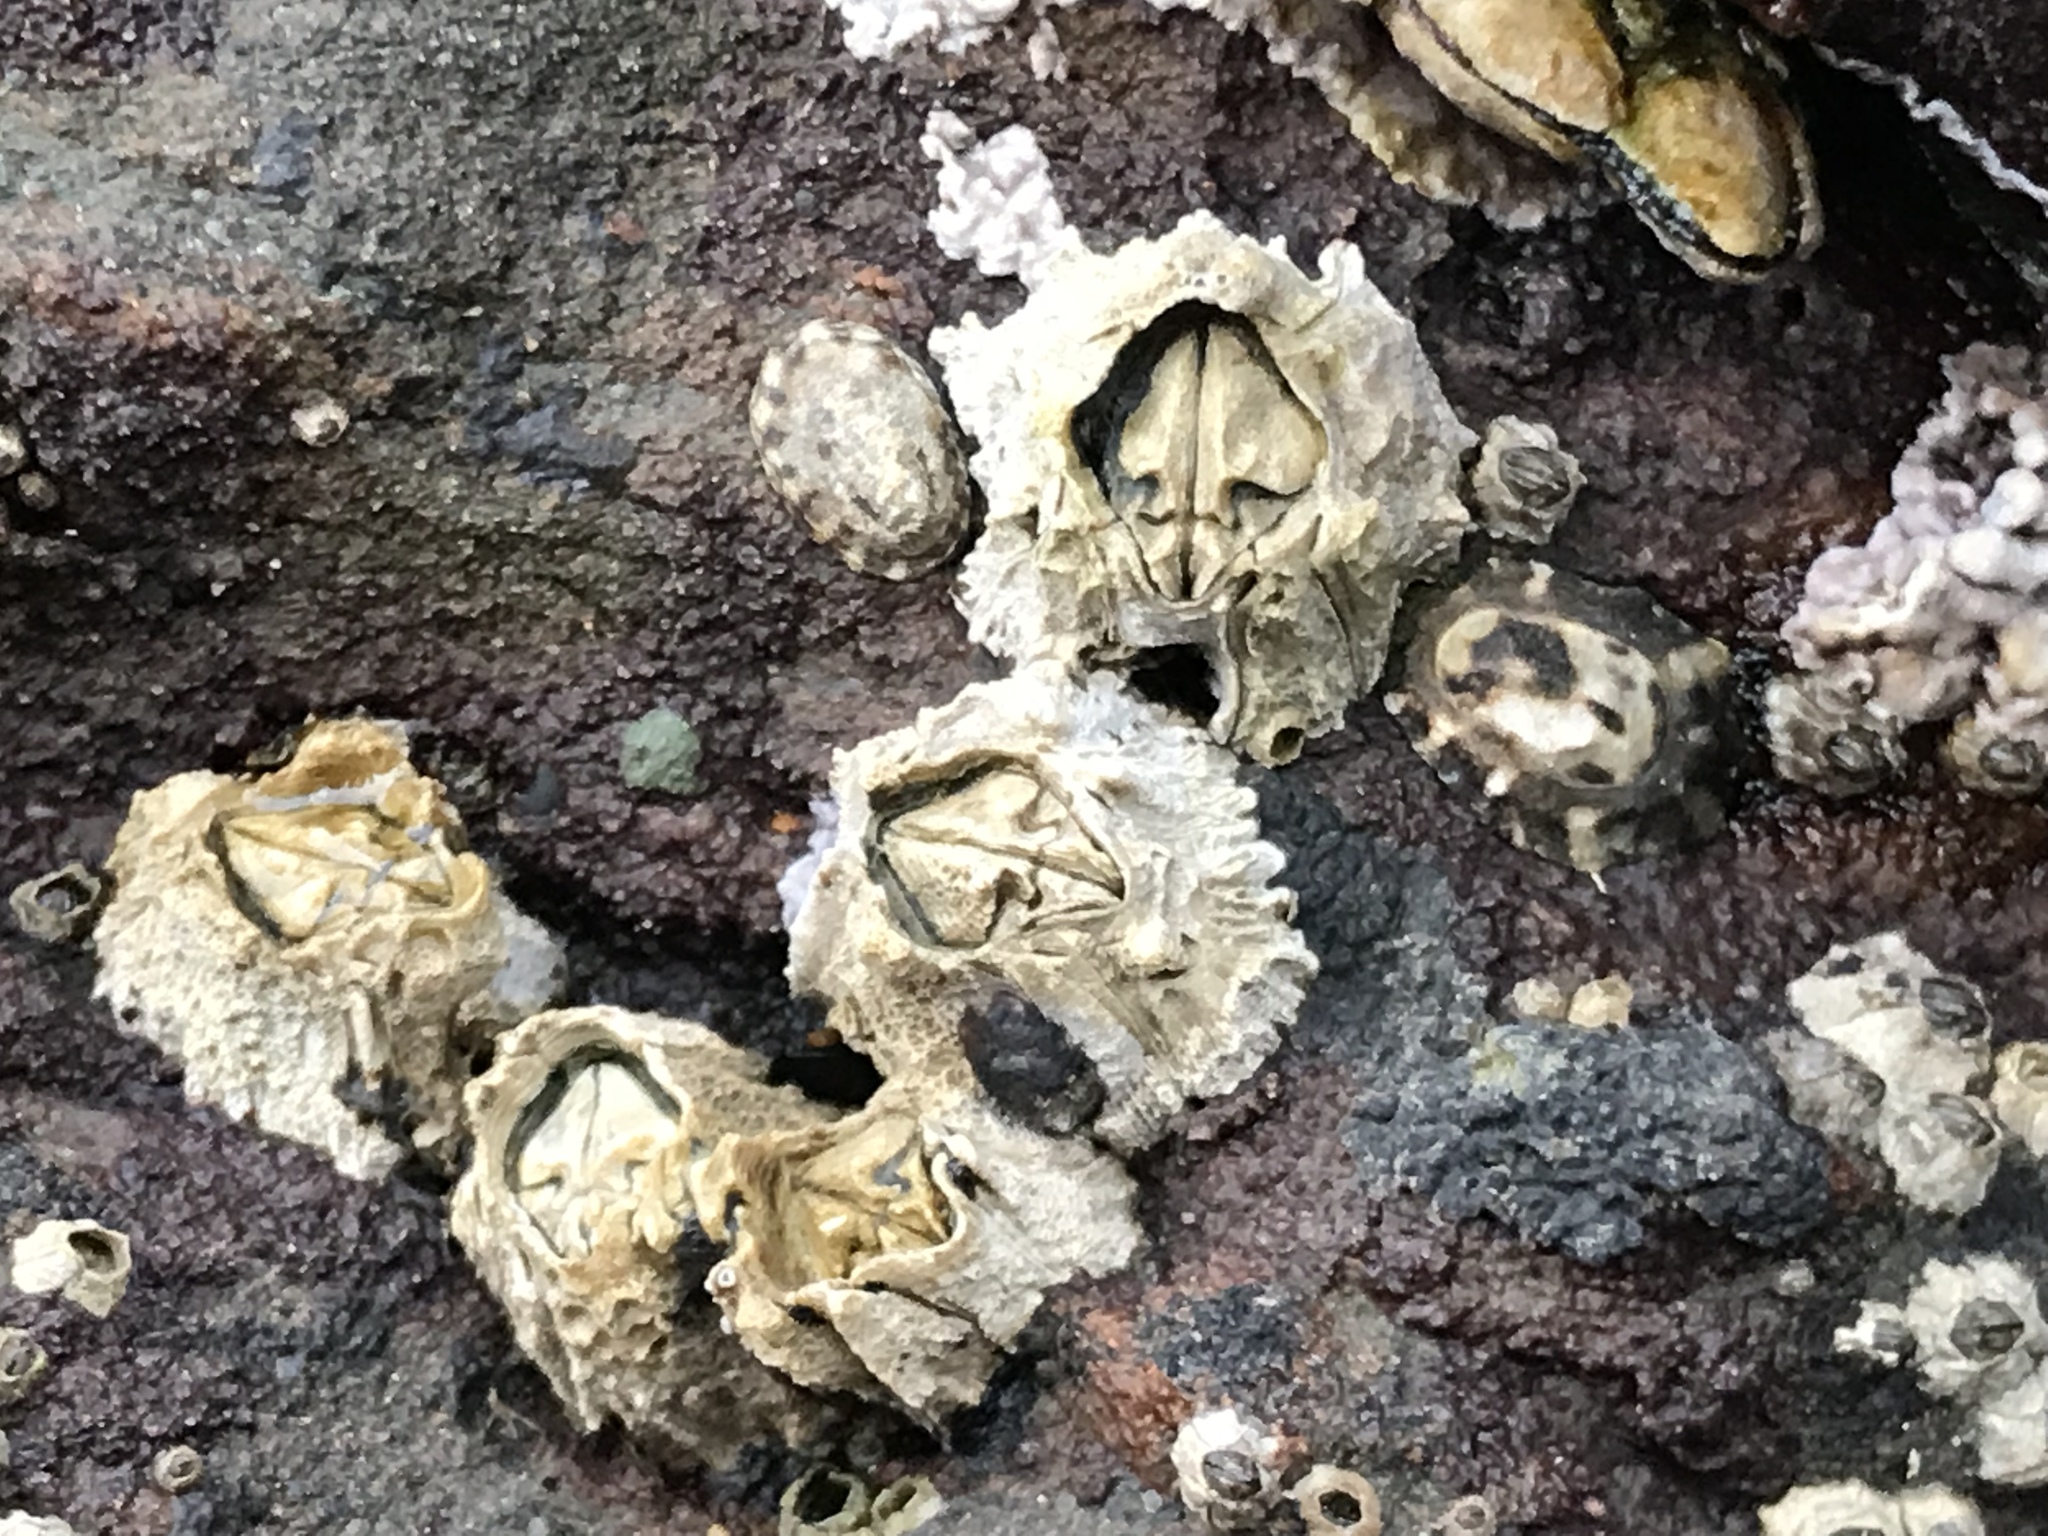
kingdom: Animalia
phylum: Arthropoda
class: Maxillopoda
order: Sessilia
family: Balanidae
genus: Balanus
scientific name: Balanus glandula
